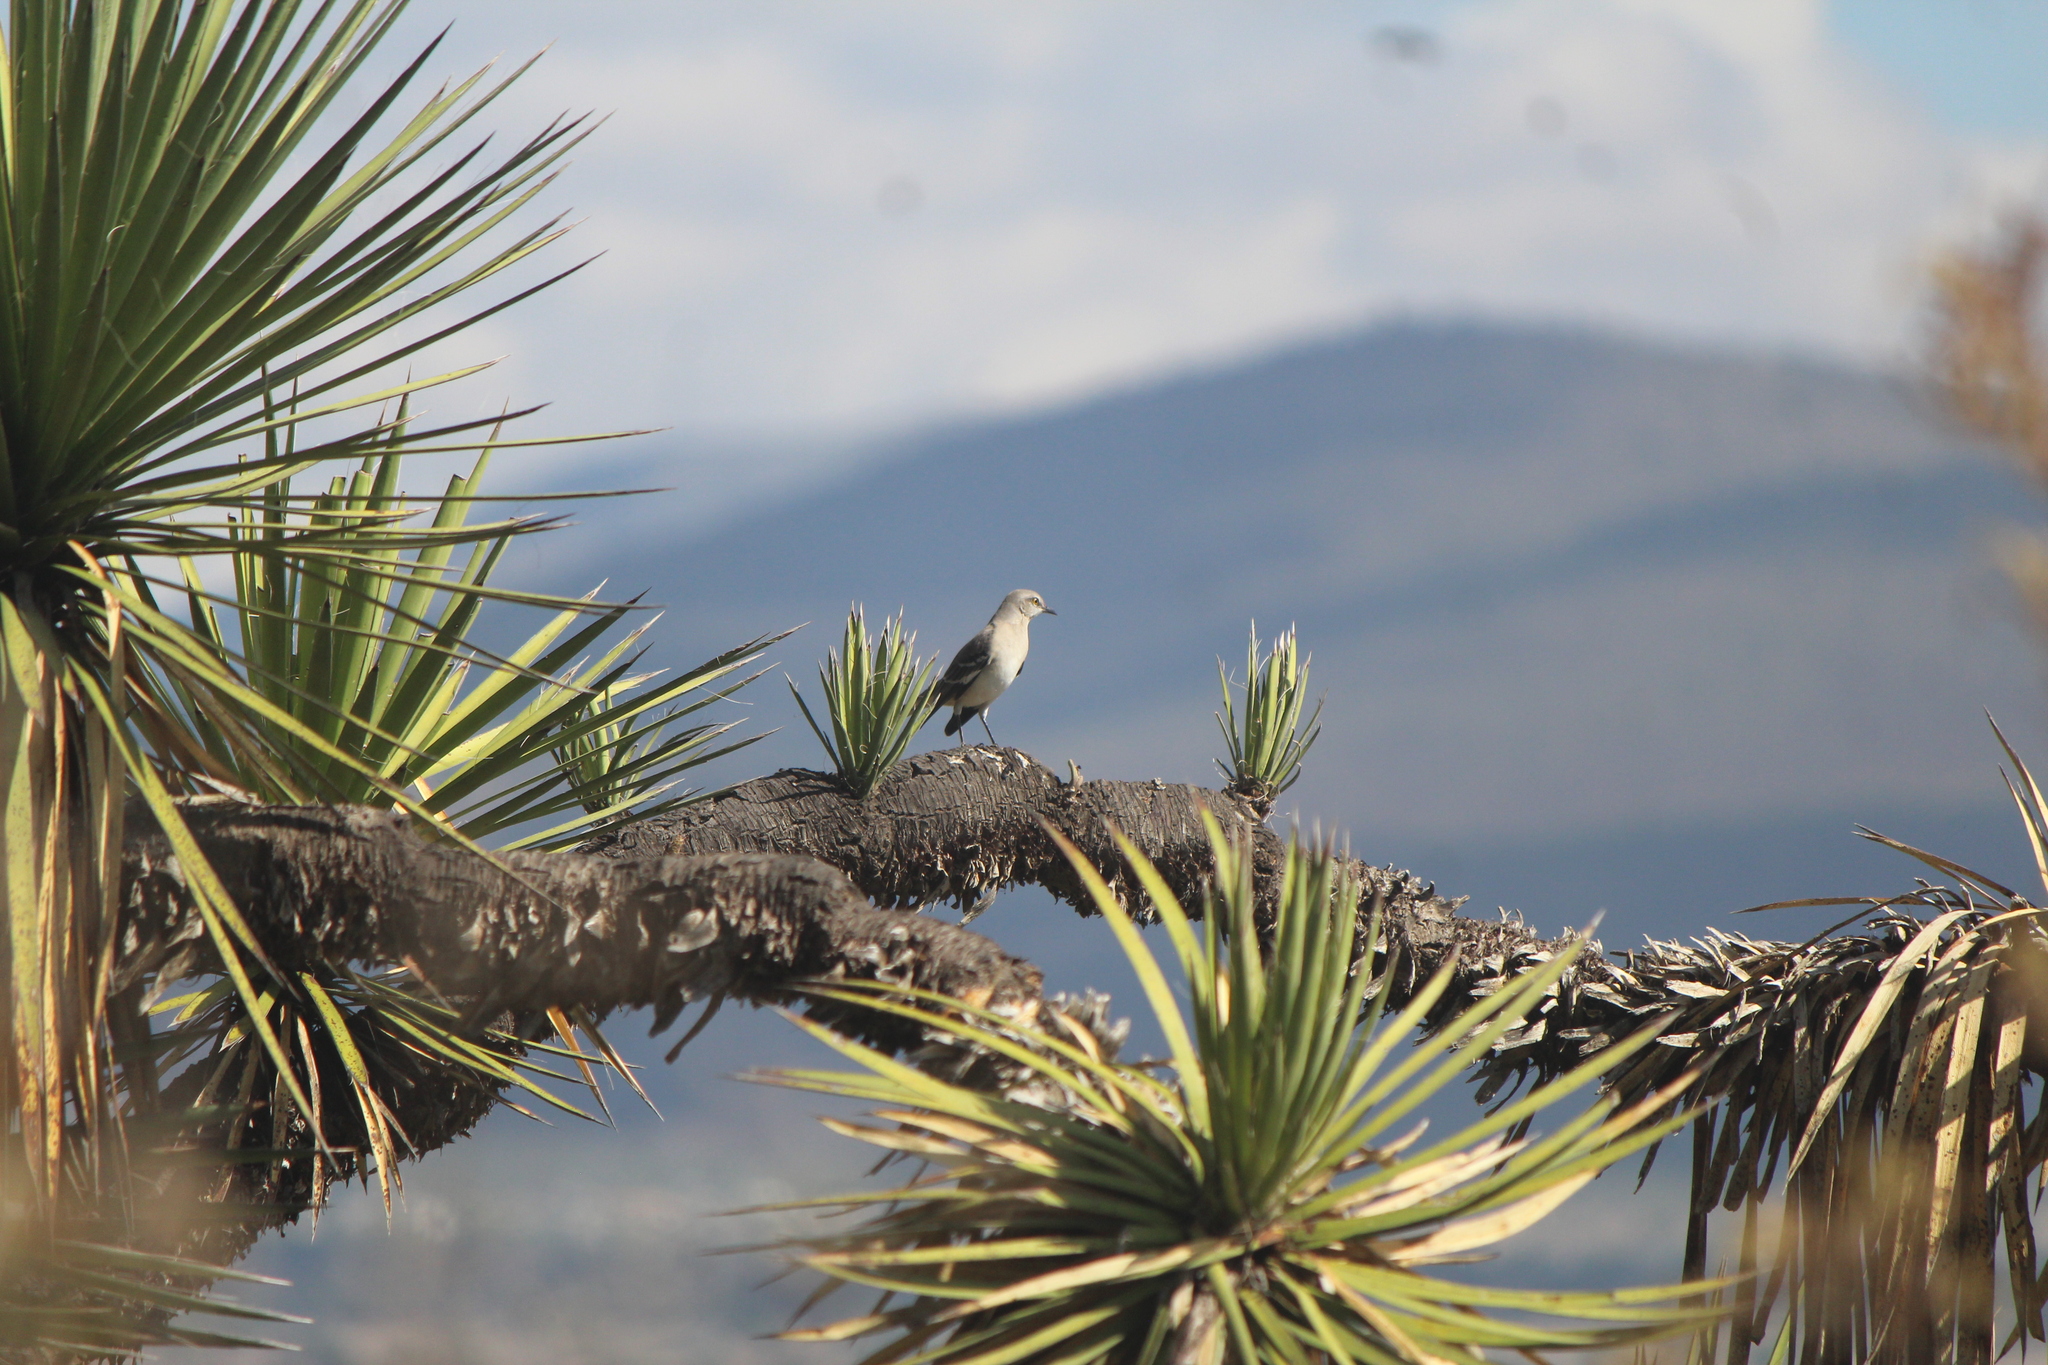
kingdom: Animalia
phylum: Chordata
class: Aves
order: Passeriformes
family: Mimidae
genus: Mimus
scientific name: Mimus polyglottos
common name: Northern mockingbird
